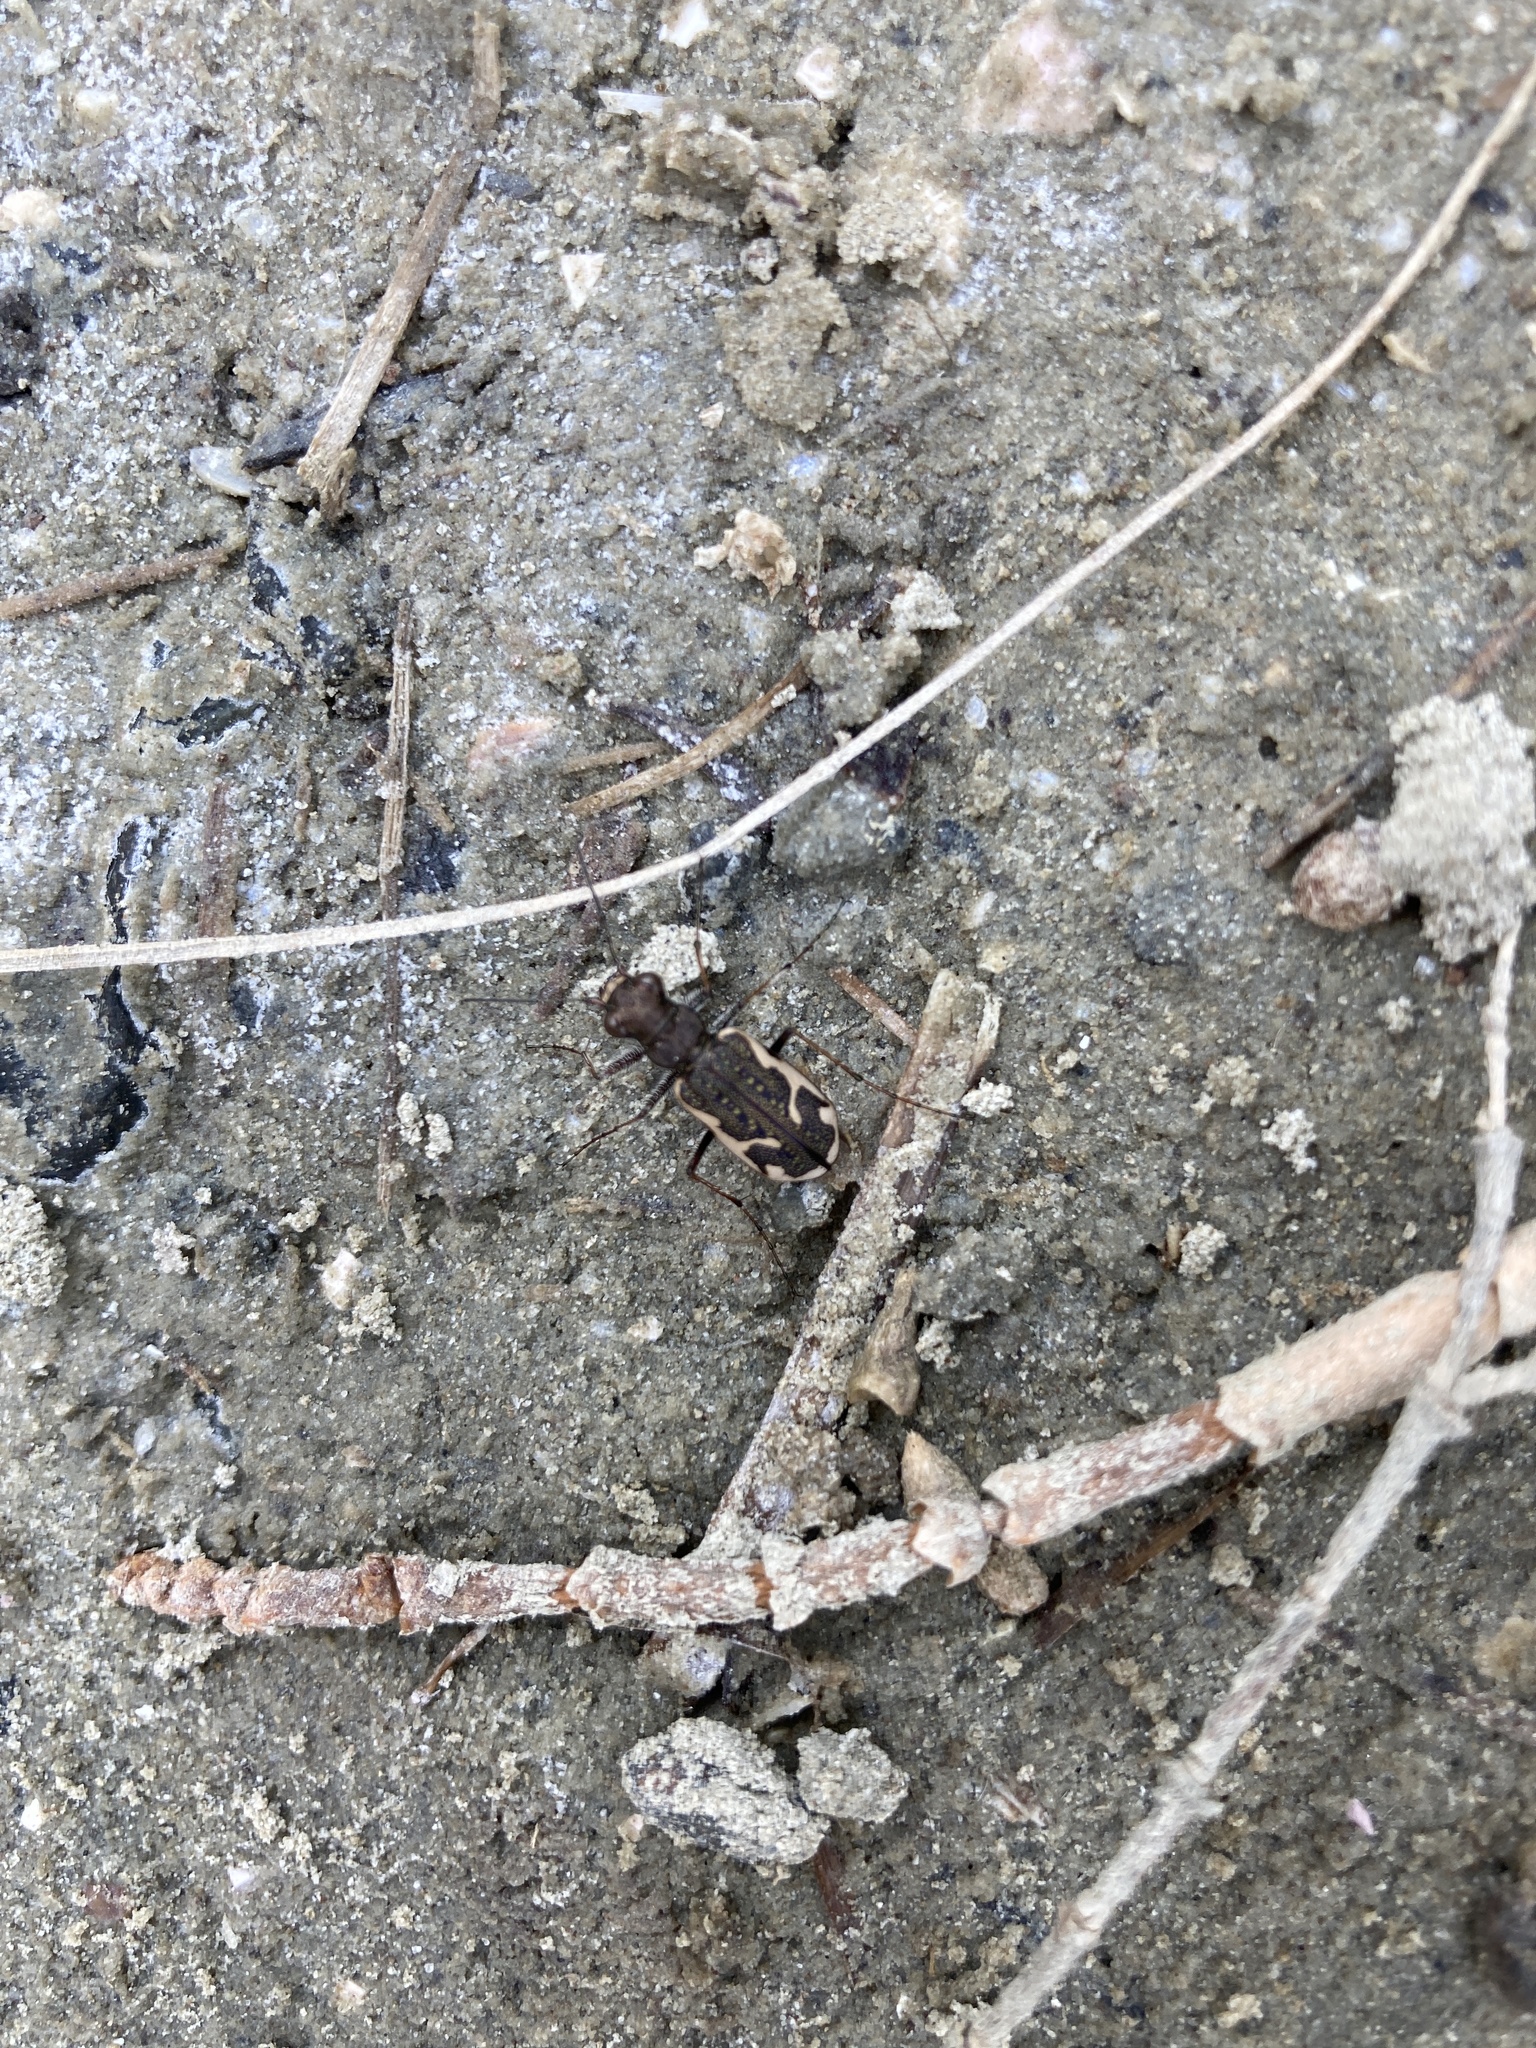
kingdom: Animalia
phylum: Arthropoda
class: Insecta
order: Coleoptera
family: Carabidae
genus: Neocicindela
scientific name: Neocicindela tuberculata
